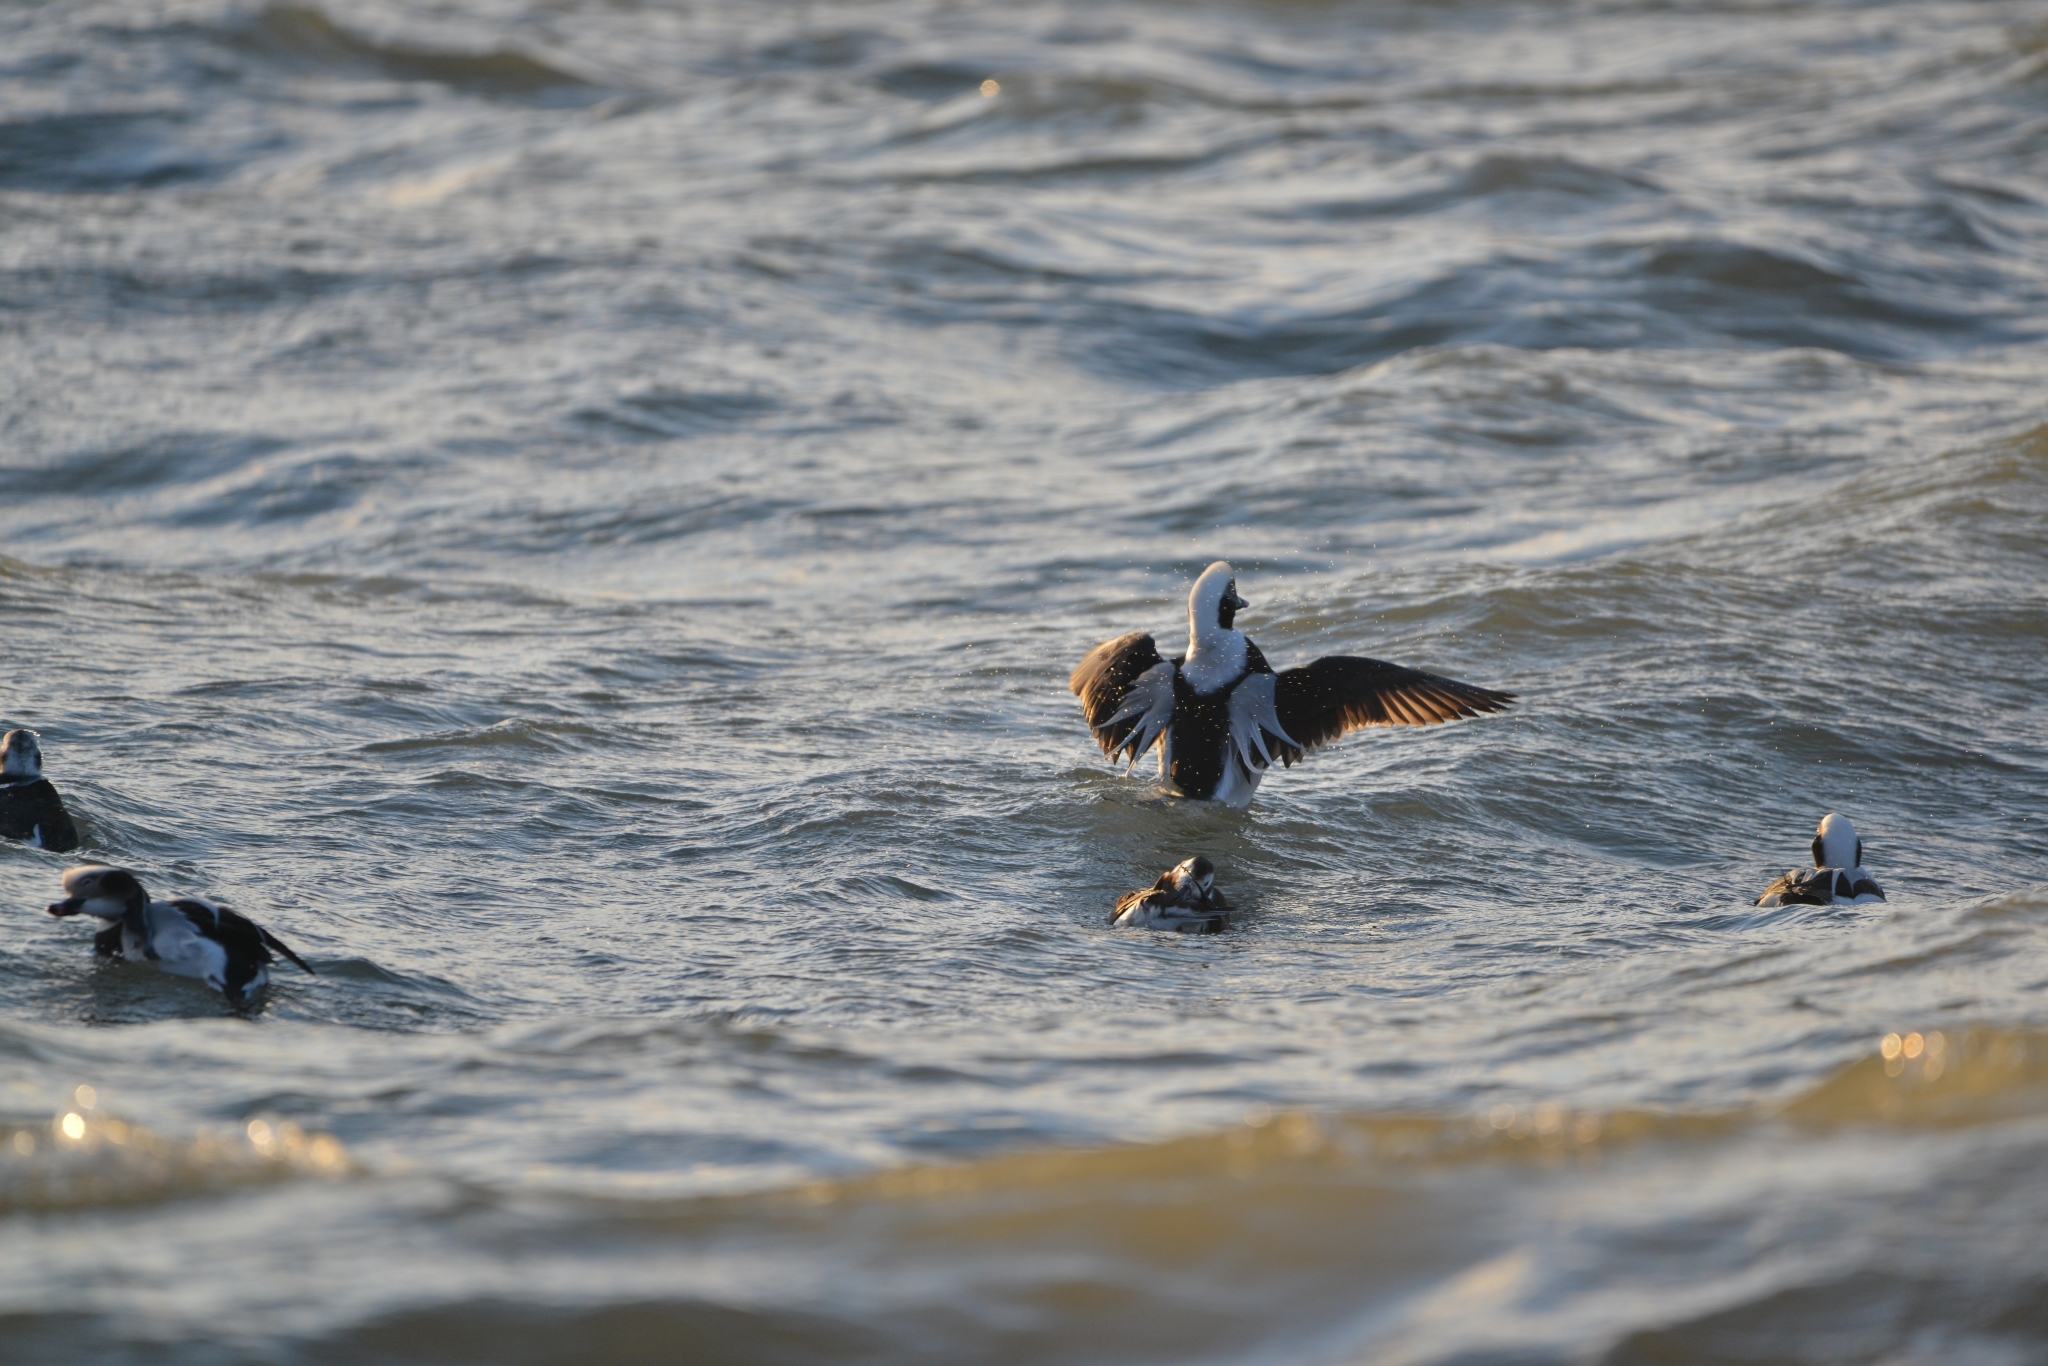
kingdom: Animalia
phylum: Chordata
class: Aves
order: Anseriformes
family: Anatidae
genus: Clangula
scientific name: Clangula hyemalis
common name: Long-tailed duck
